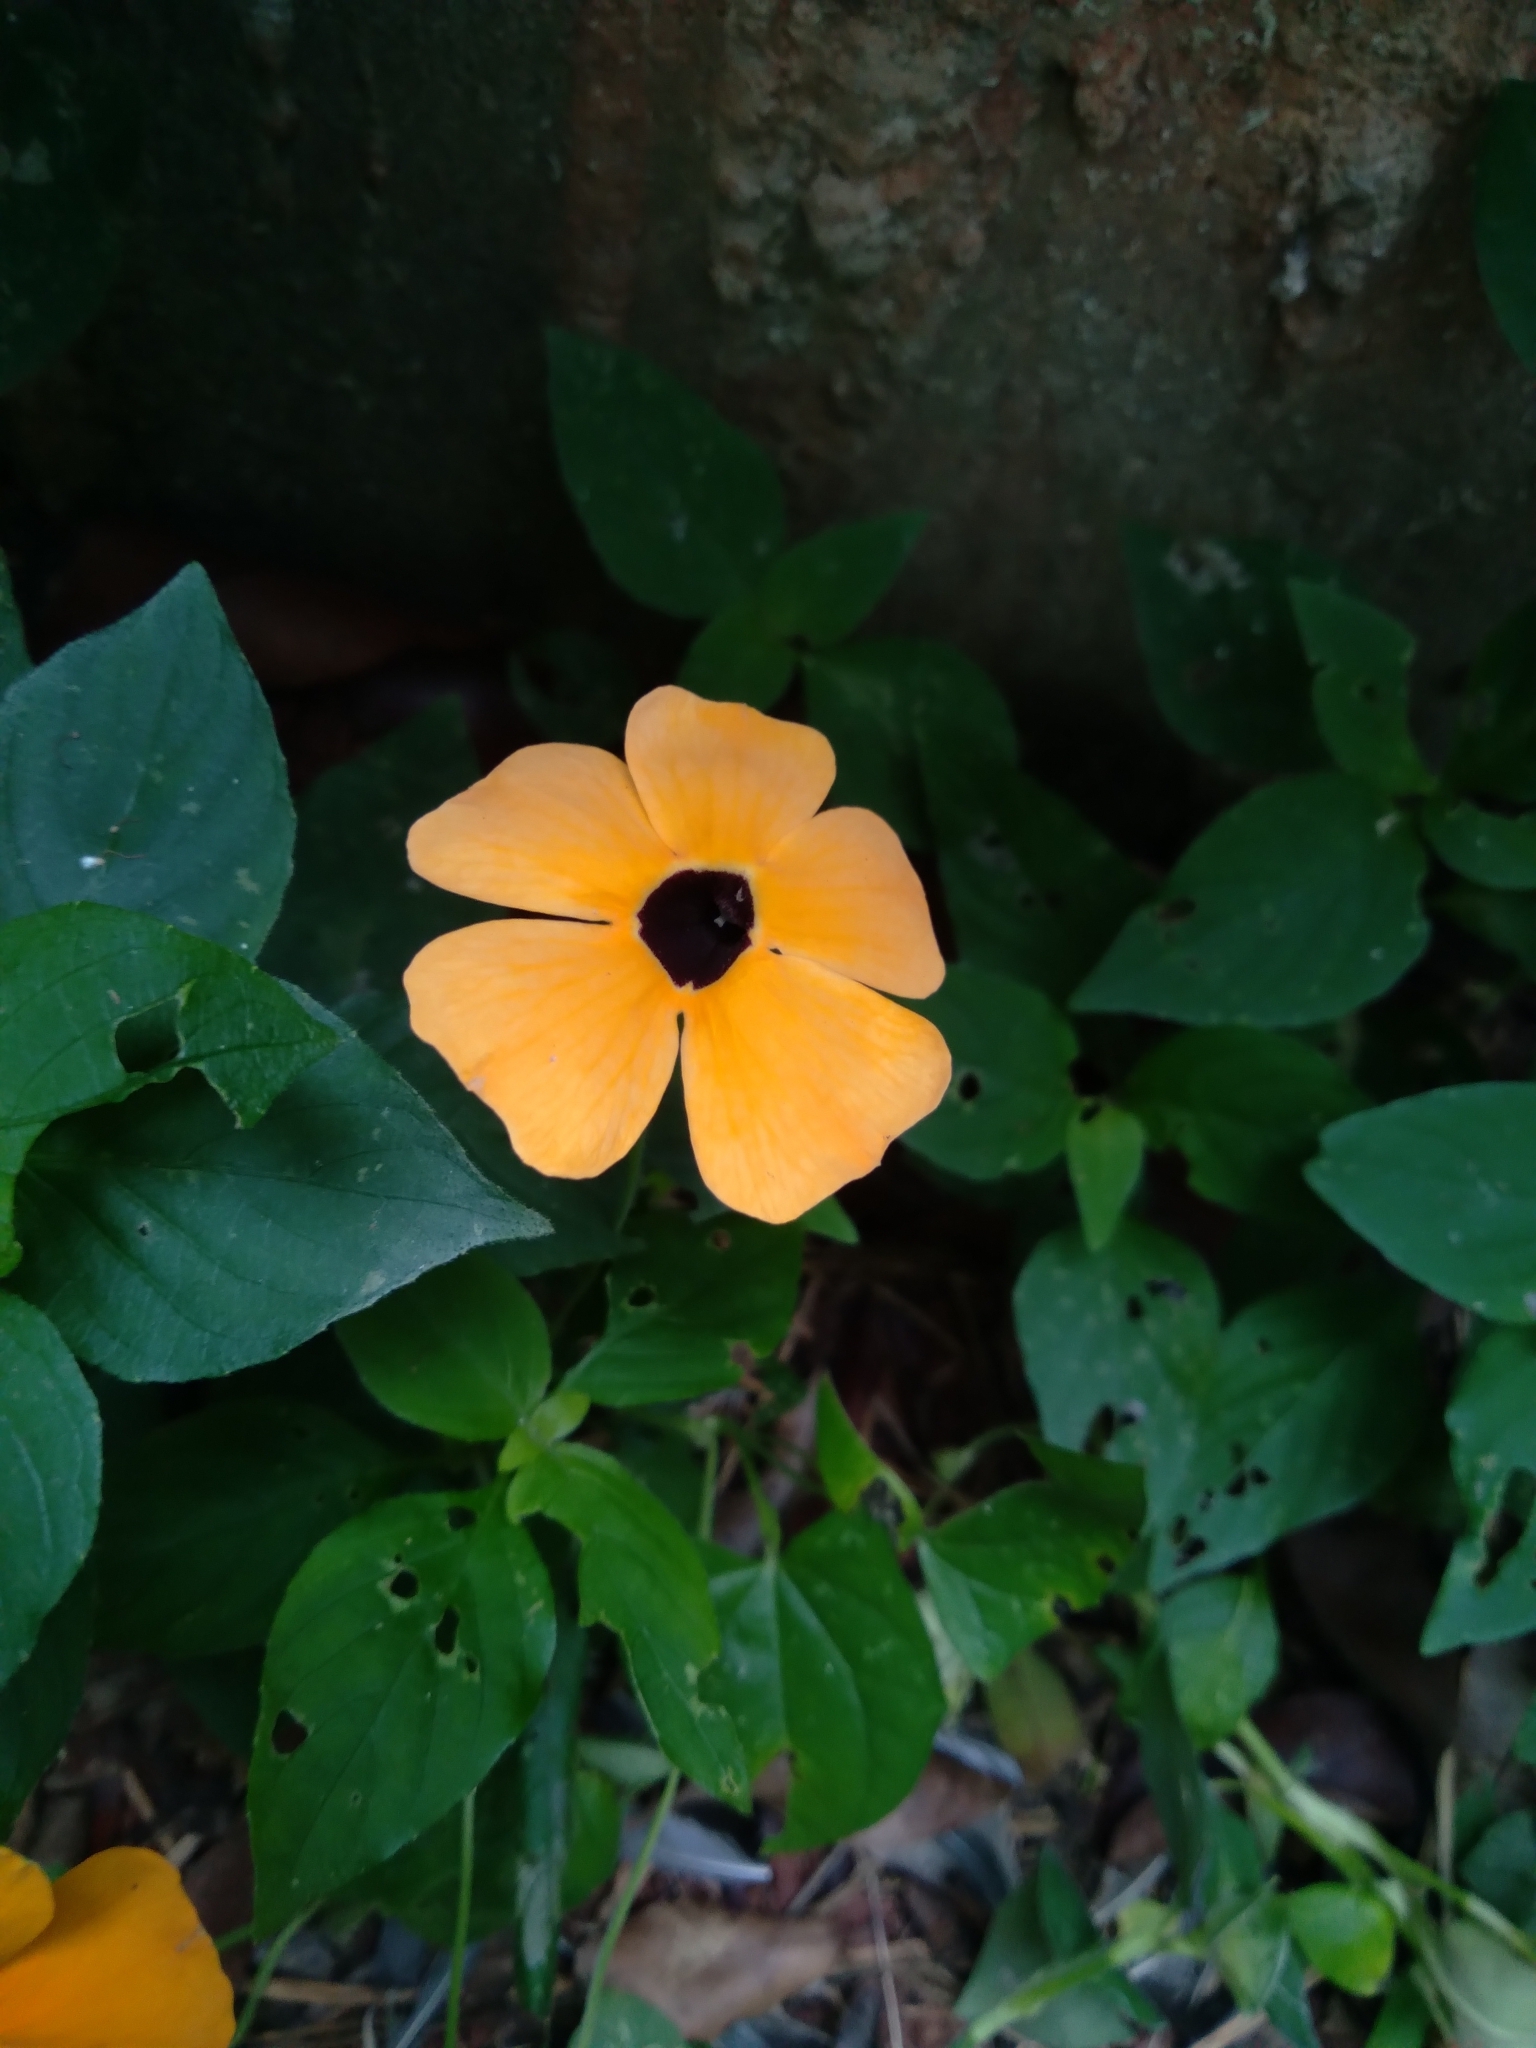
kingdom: Plantae
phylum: Tracheophyta
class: Magnoliopsida
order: Lamiales
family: Acanthaceae
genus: Thunbergia
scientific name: Thunbergia alata
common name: Blackeyed susan vine
